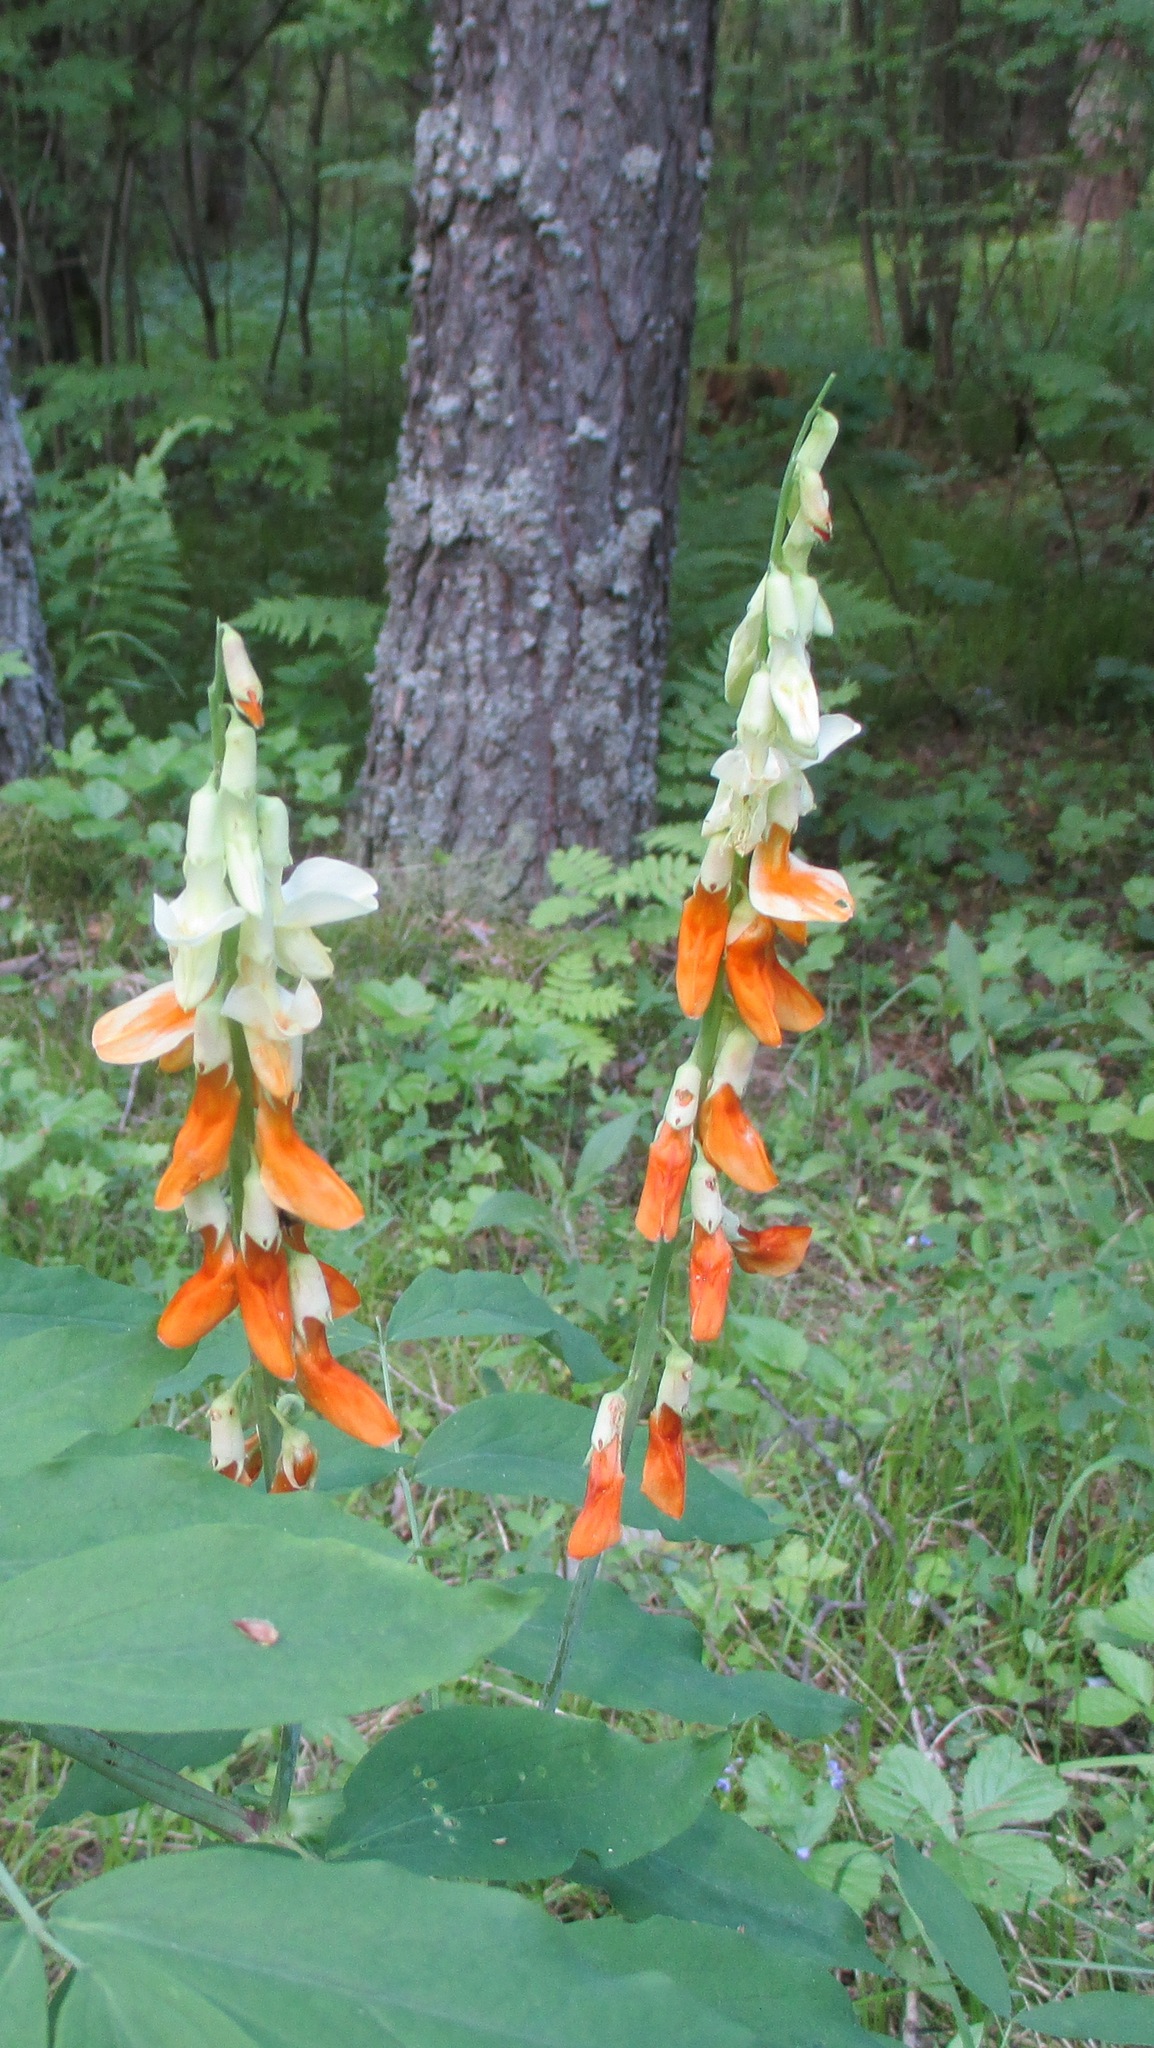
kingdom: Plantae
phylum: Tracheophyta
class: Magnoliopsida
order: Fabales
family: Fabaceae
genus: Lathyrus
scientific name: Lathyrus gmelinii
